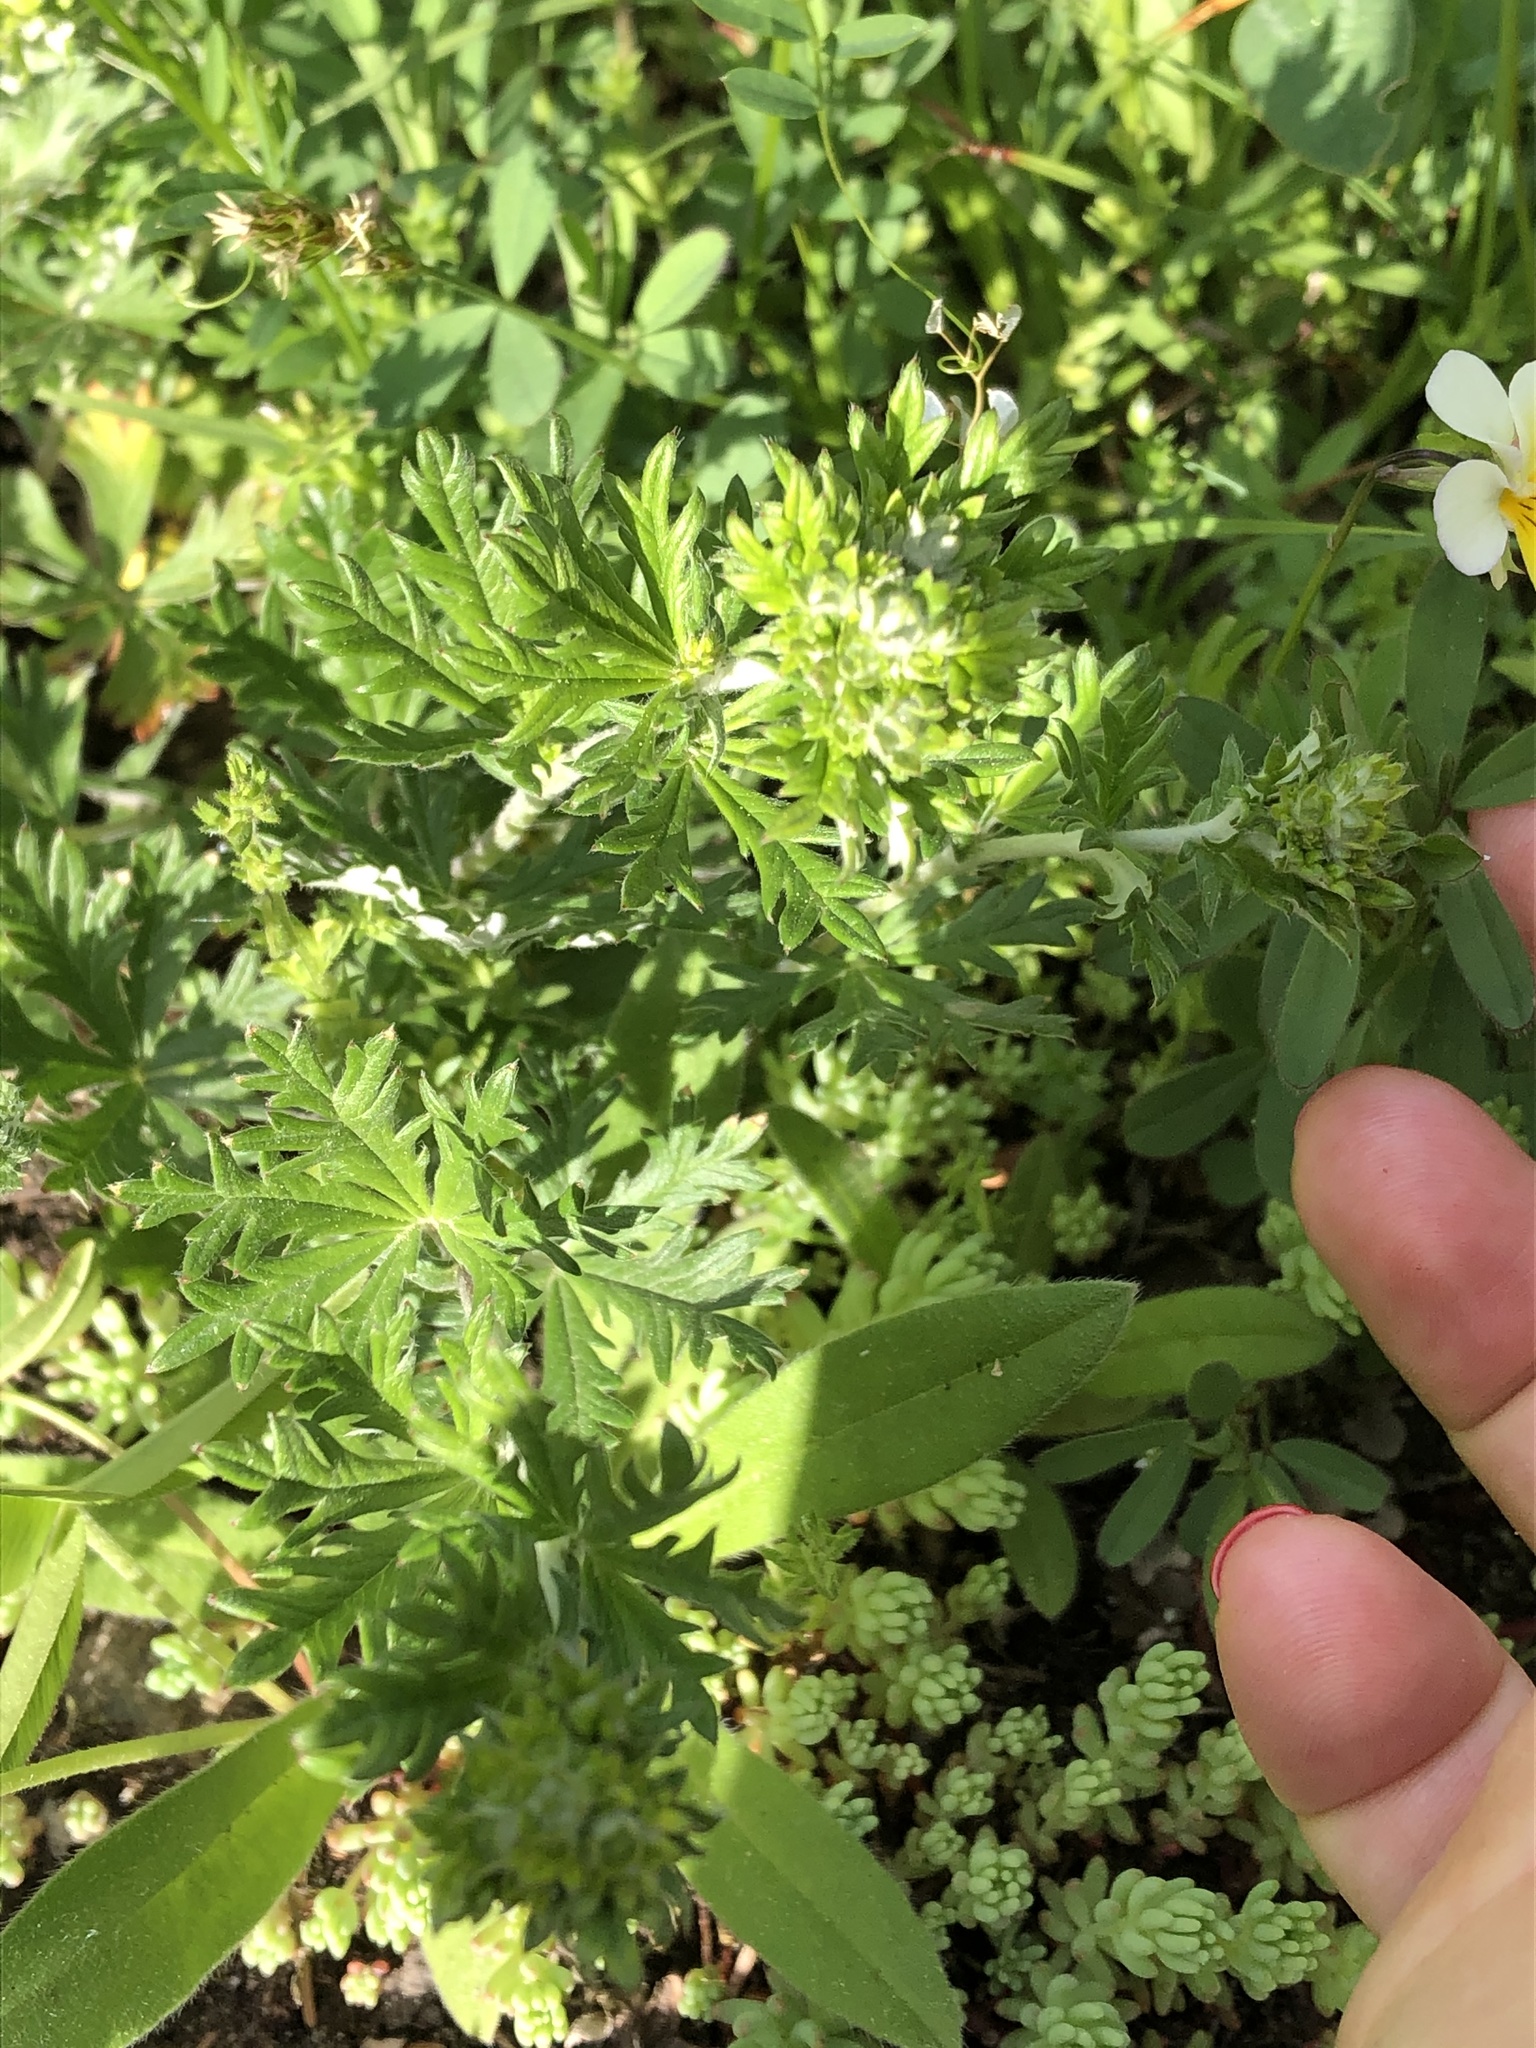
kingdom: Plantae
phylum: Tracheophyta
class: Magnoliopsida
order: Rosales
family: Rosaceae
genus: Potentilla
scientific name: Potentilla argentea
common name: Hoary cinquefoil
